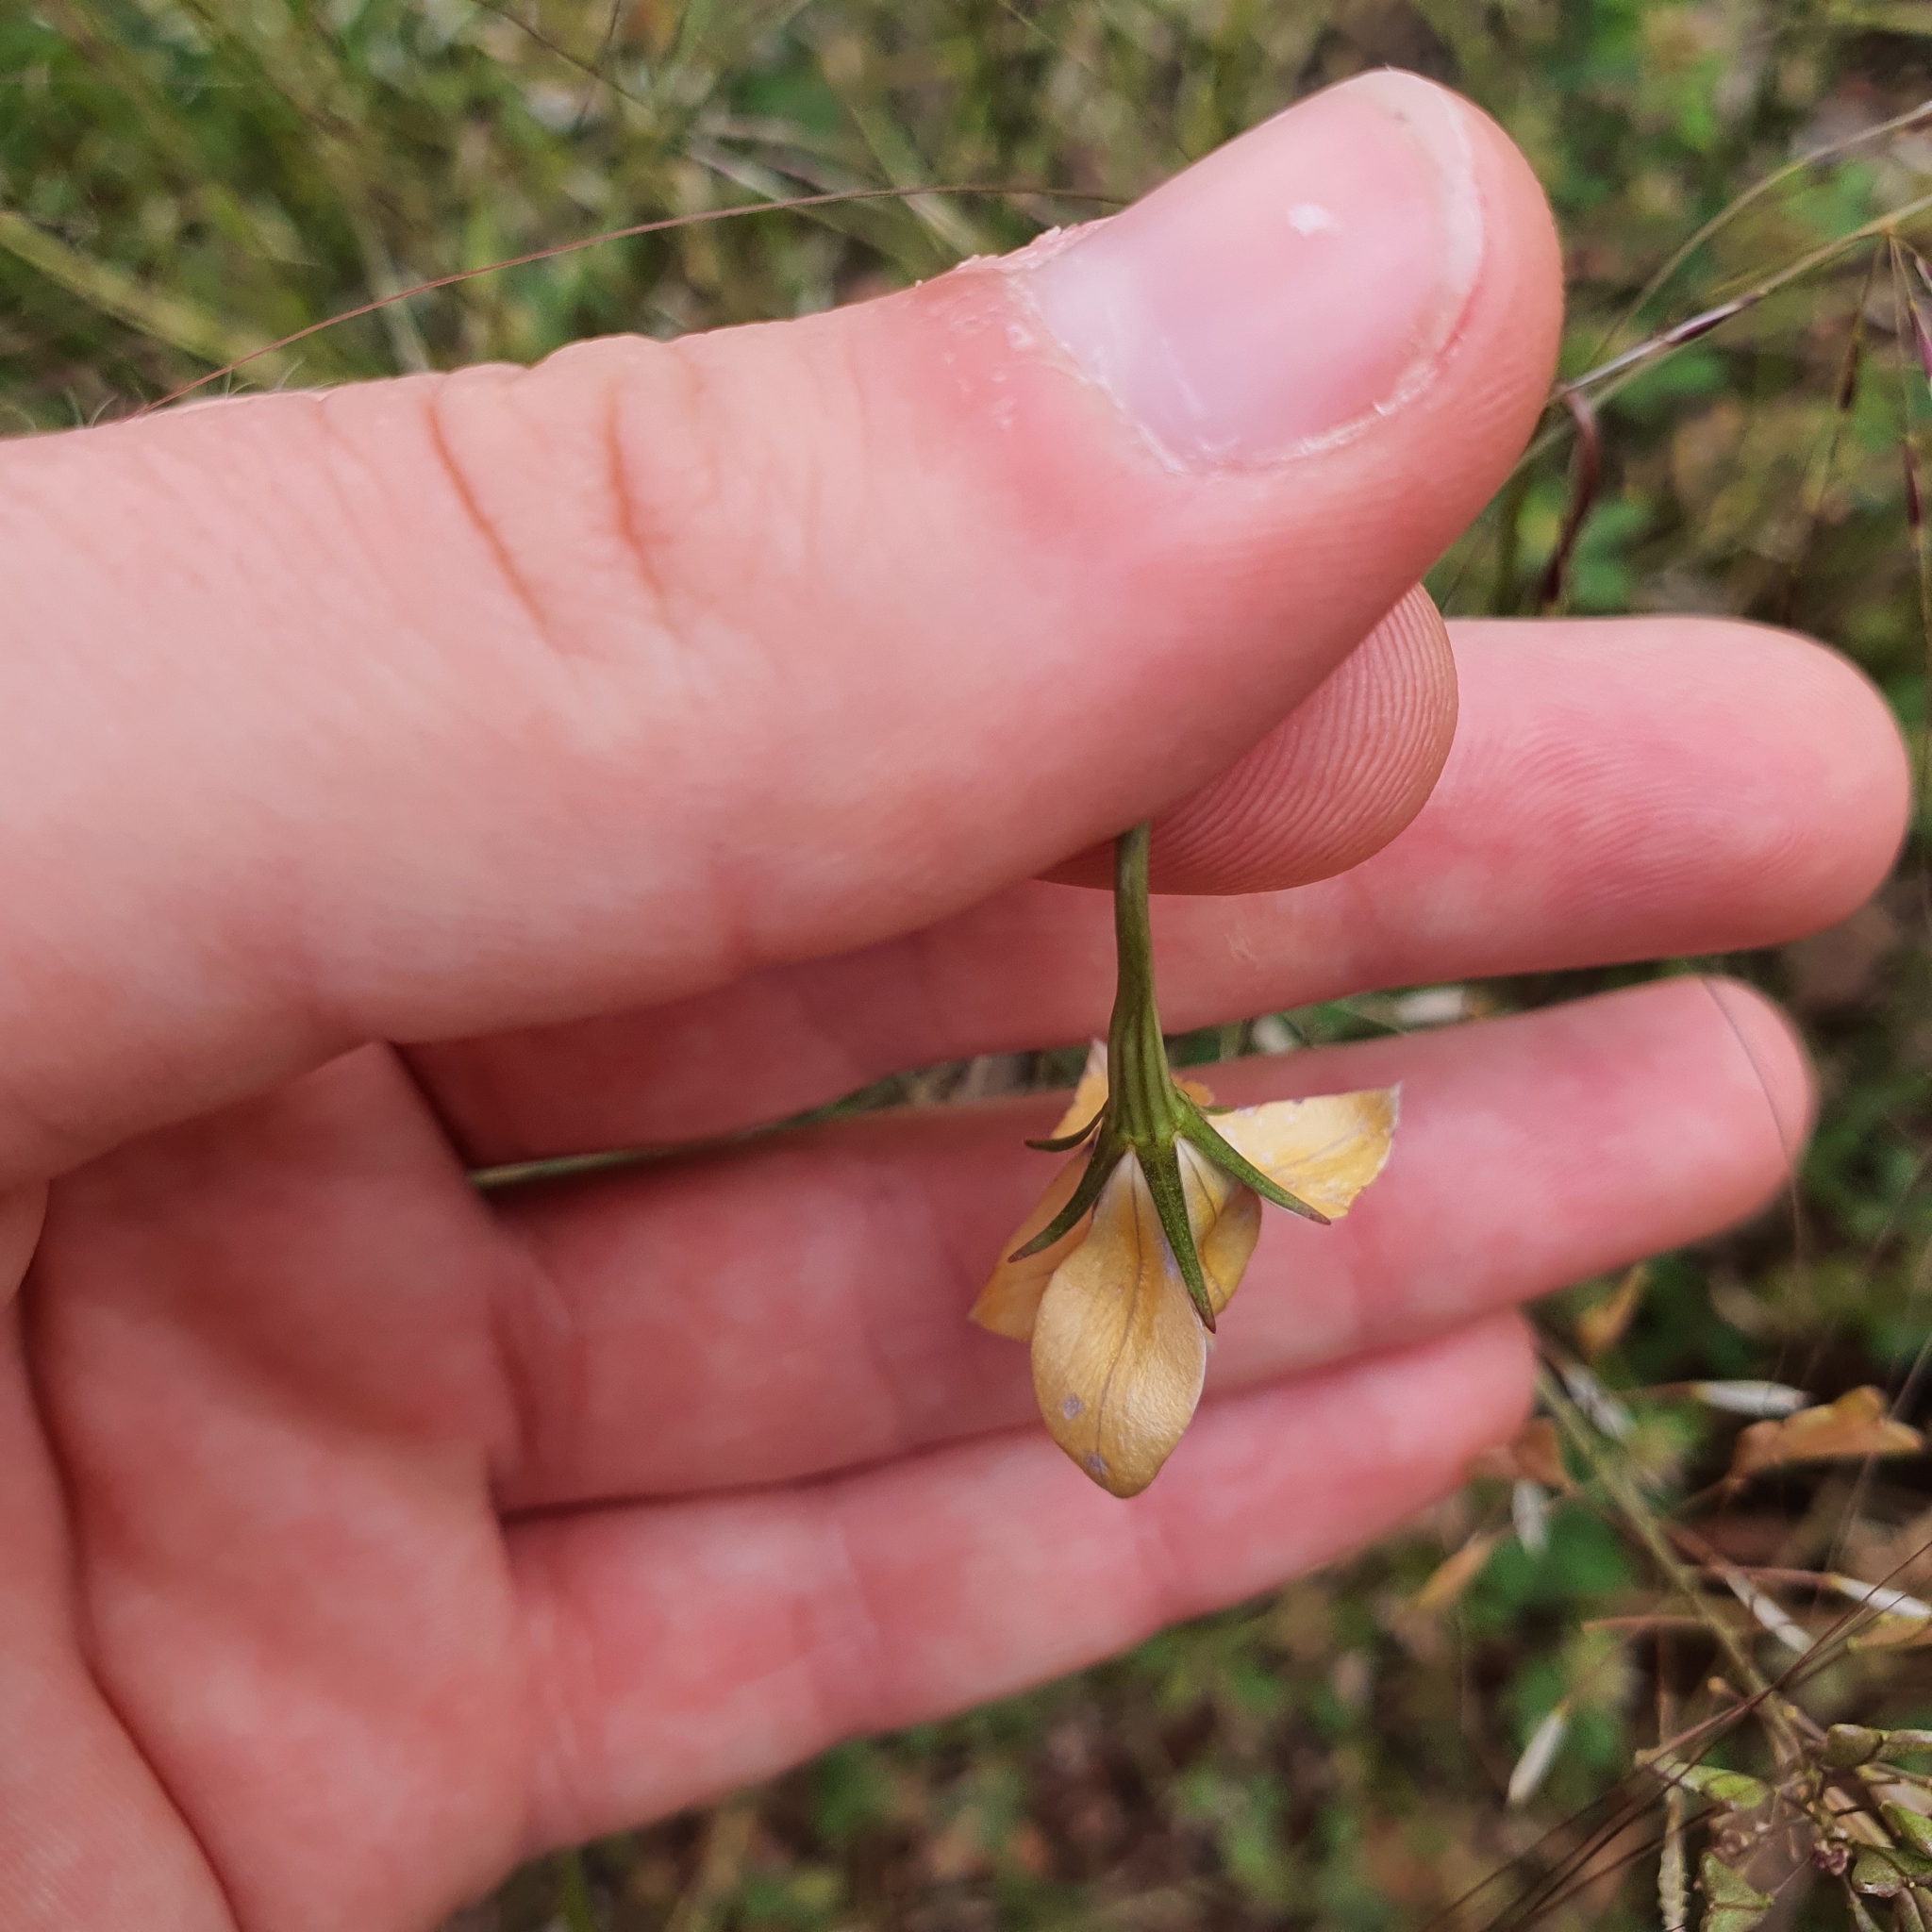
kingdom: Plantae
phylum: Tracheophyta
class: Magnoliopsida
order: Asterales
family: Campanulaceae
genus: Wahlenbergia
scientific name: Wahlenbergia luteola
